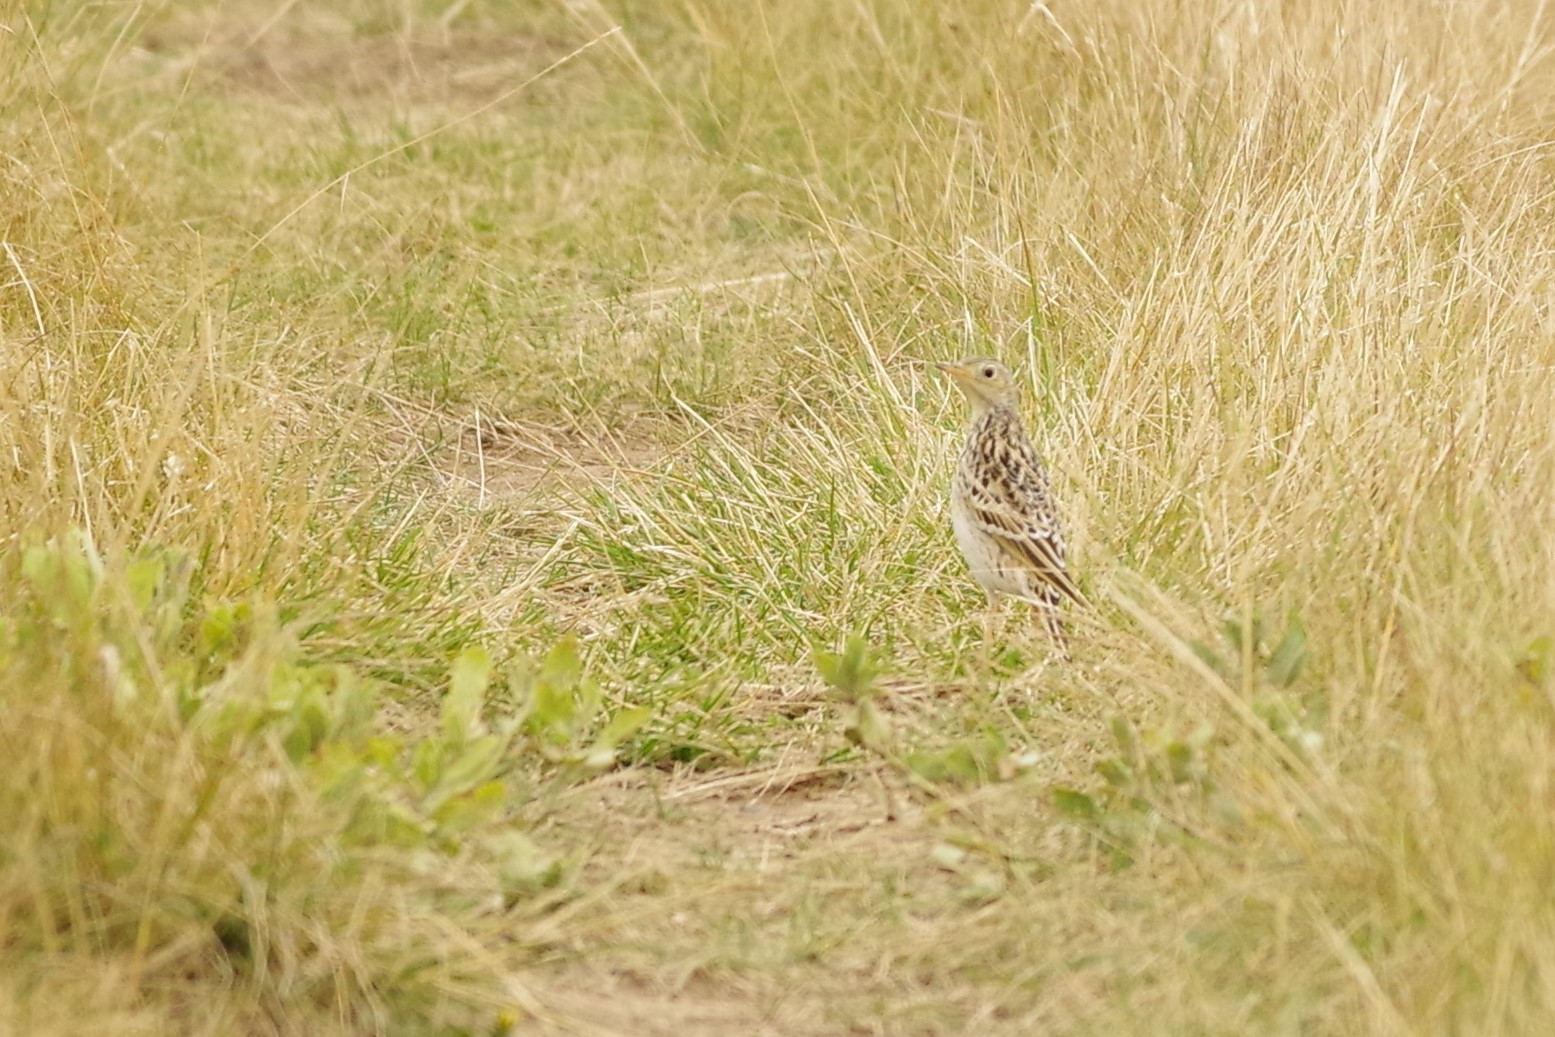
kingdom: Animalia
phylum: Chordata
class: Aves
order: Passeriformes
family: Motacillidae
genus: Anthus
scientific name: Anthus spragueii
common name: Sprague's pipit
